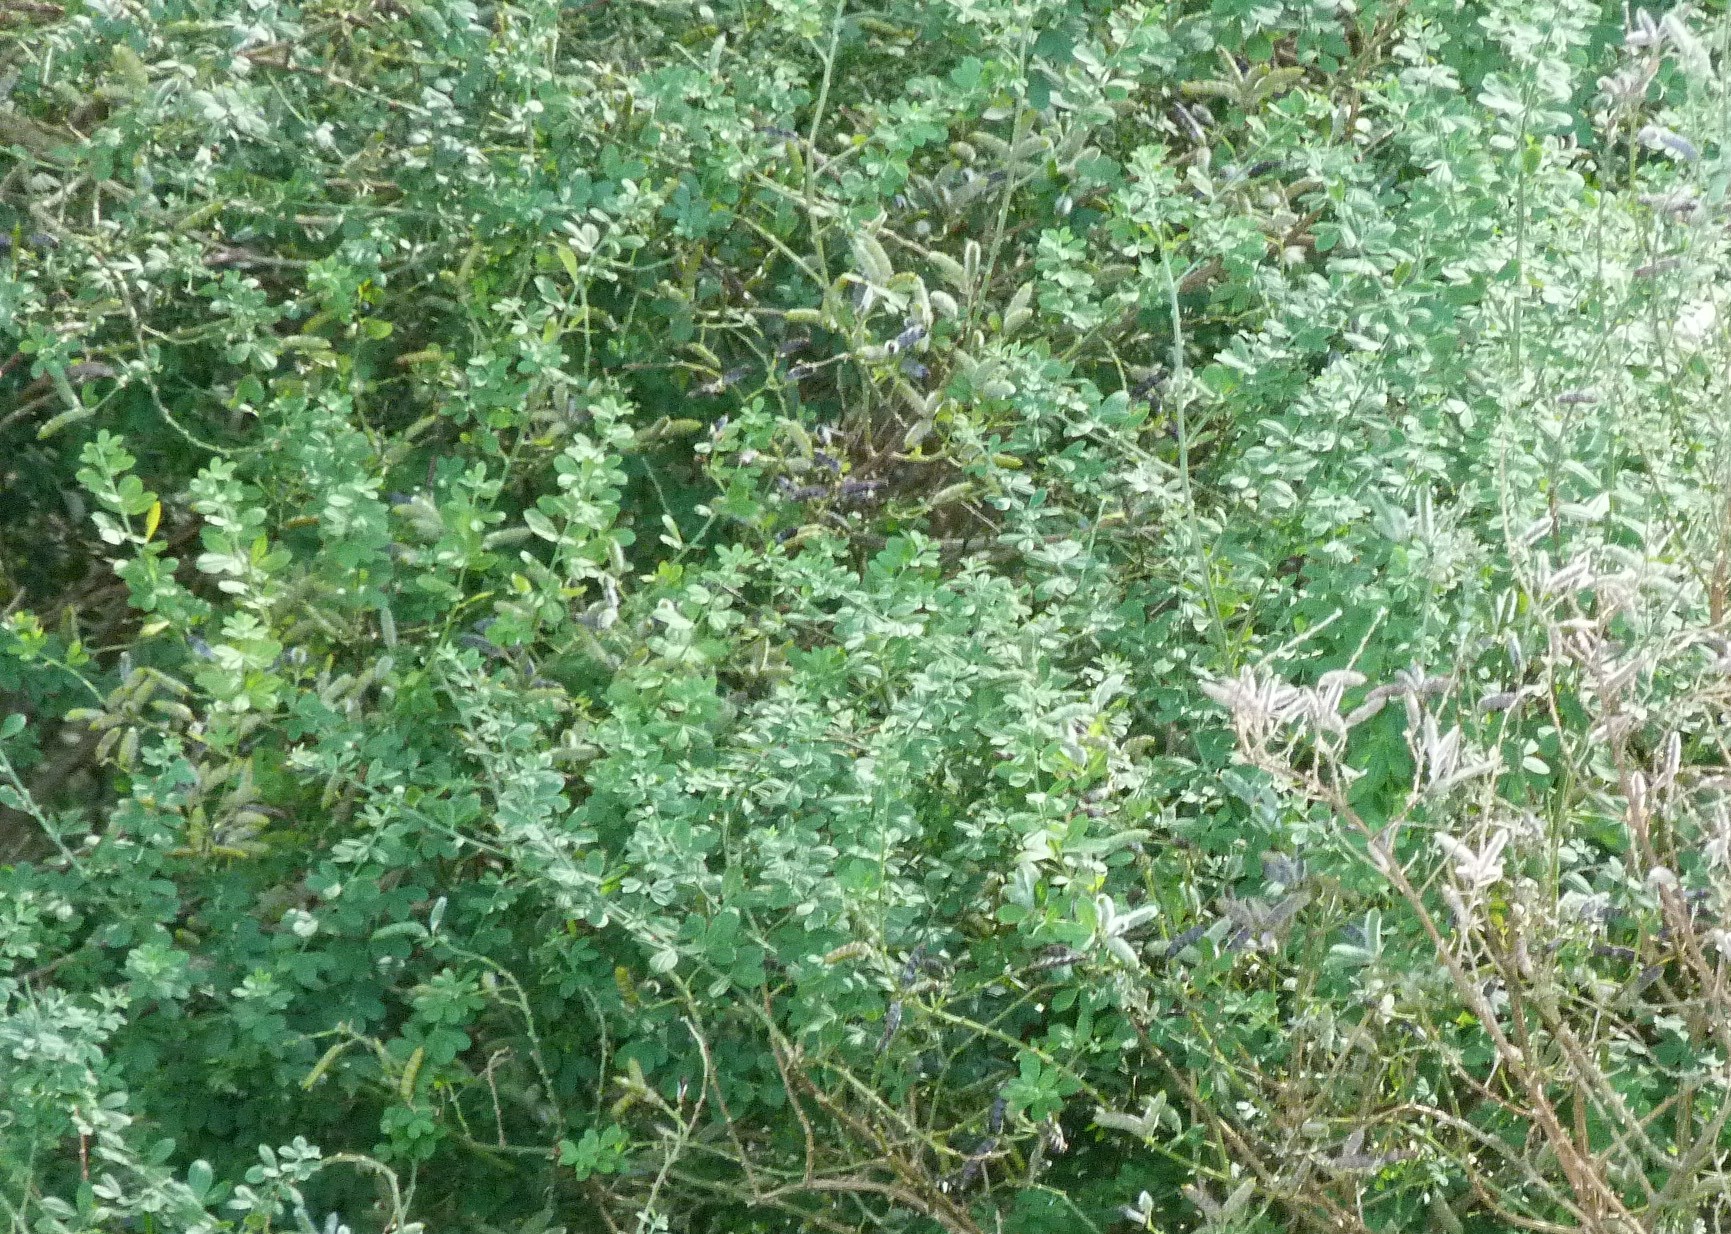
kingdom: Plantae
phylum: Tracheophyta
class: Magnoliopsida
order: Fabales
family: Fabaceae
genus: Genista
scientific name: Genista monspessulana
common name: Montpellier broom
